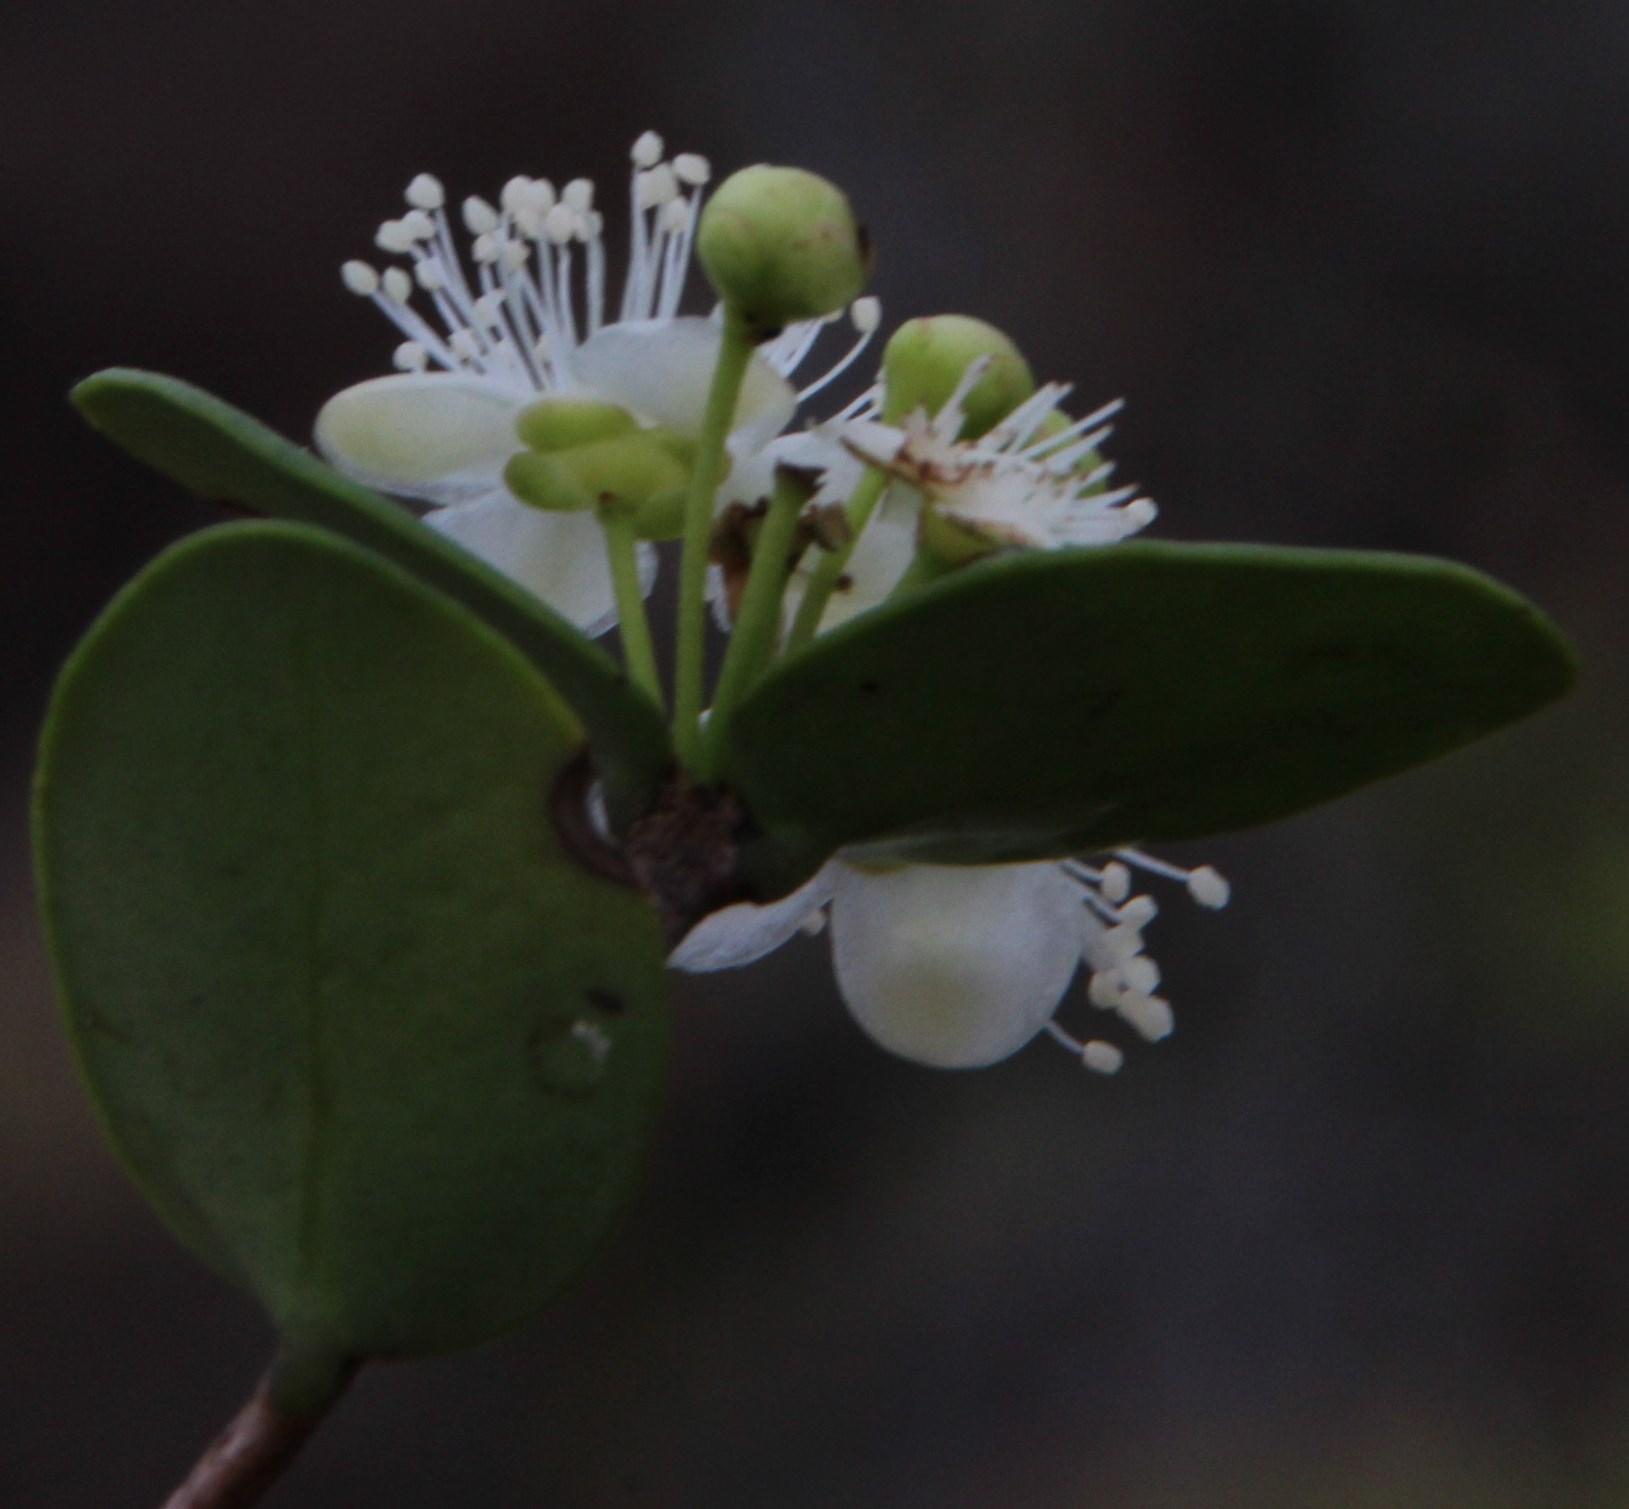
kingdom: Plantae
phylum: Tracheophyta
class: Magnoliopsida
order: Myrtales
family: Myrtaceae
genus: Eugenia
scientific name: Eugenia capensis
